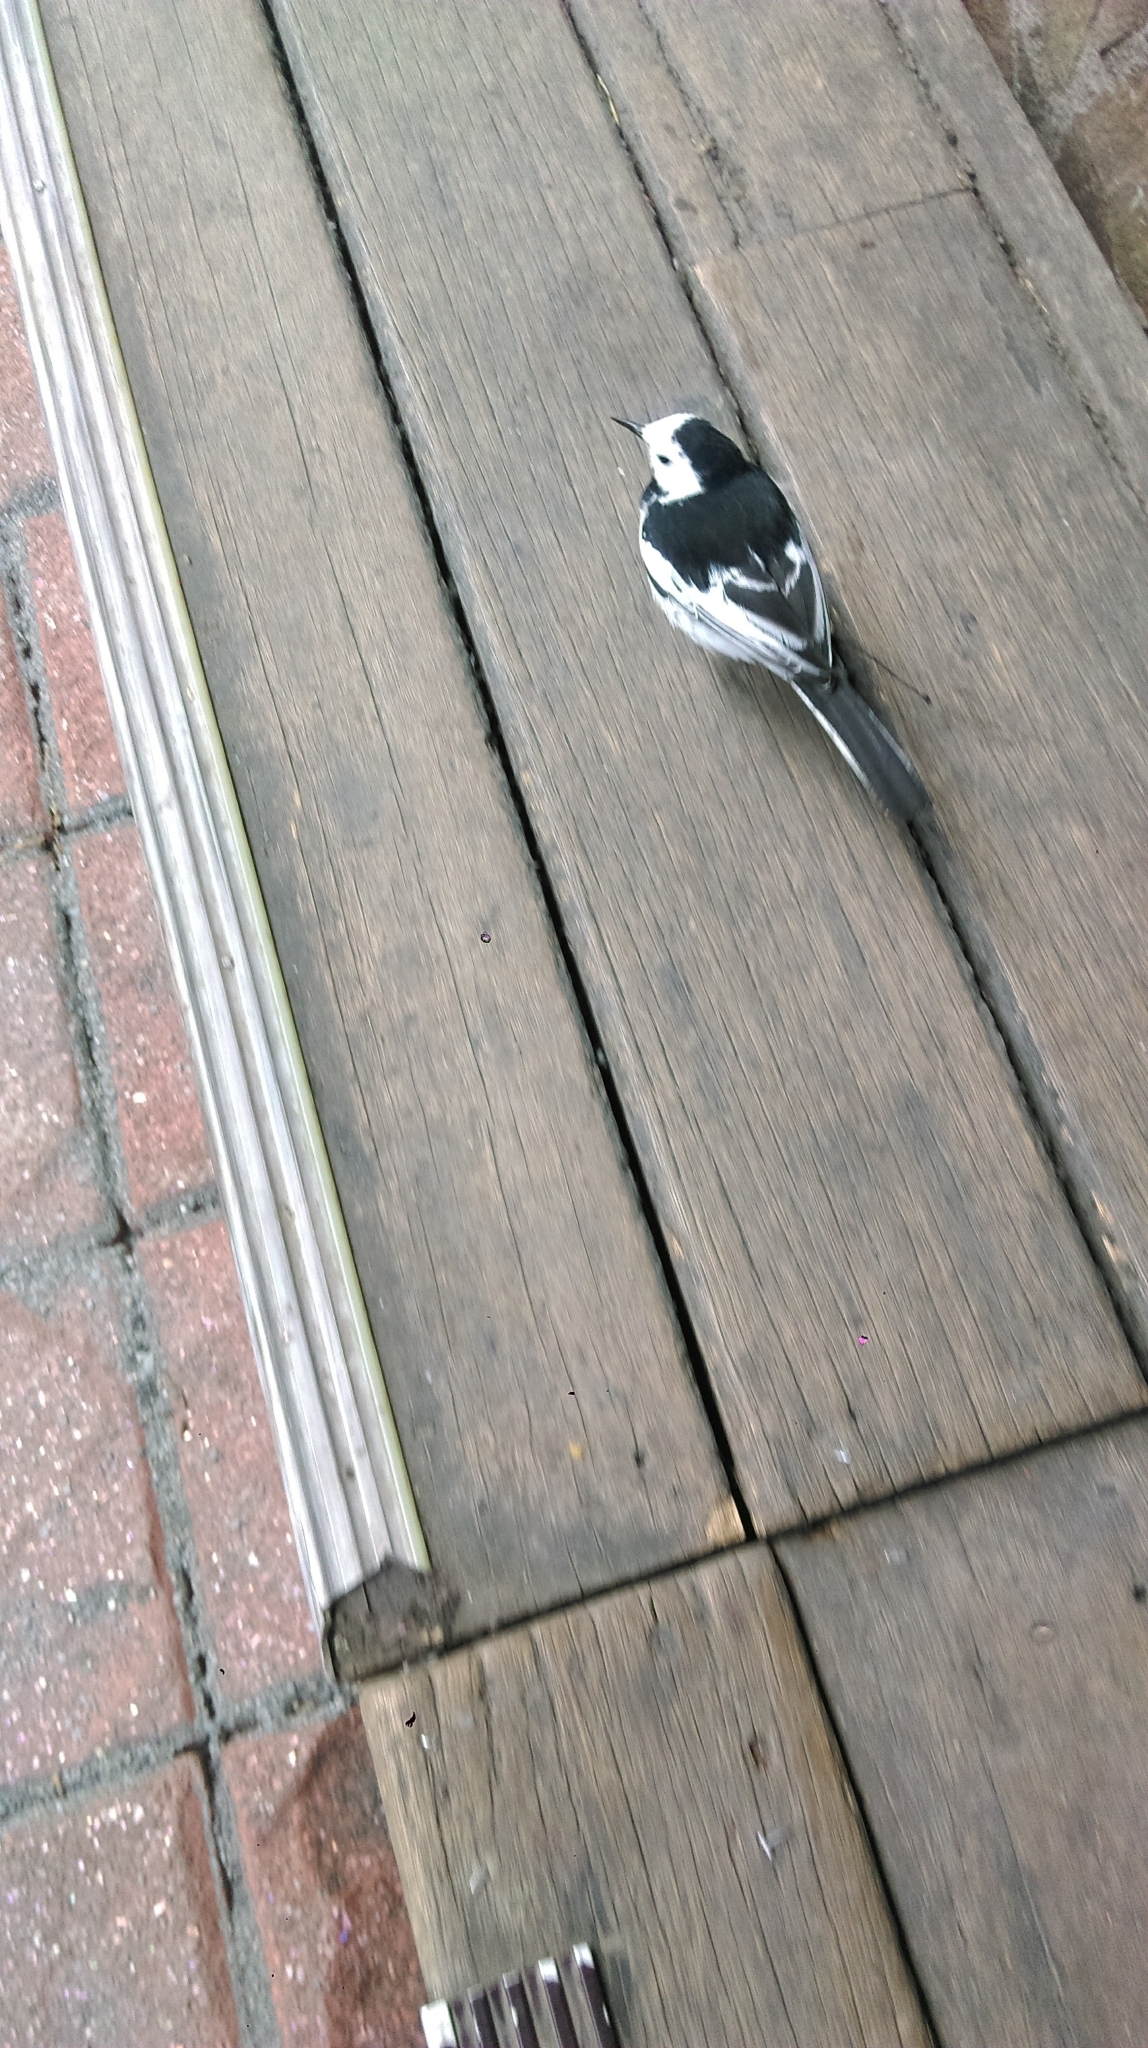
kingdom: Animalia
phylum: Chordata
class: Aves
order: Passeriformes
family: Motacillidae
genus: Motacilla
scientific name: Motacilla alba
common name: White wagtail
